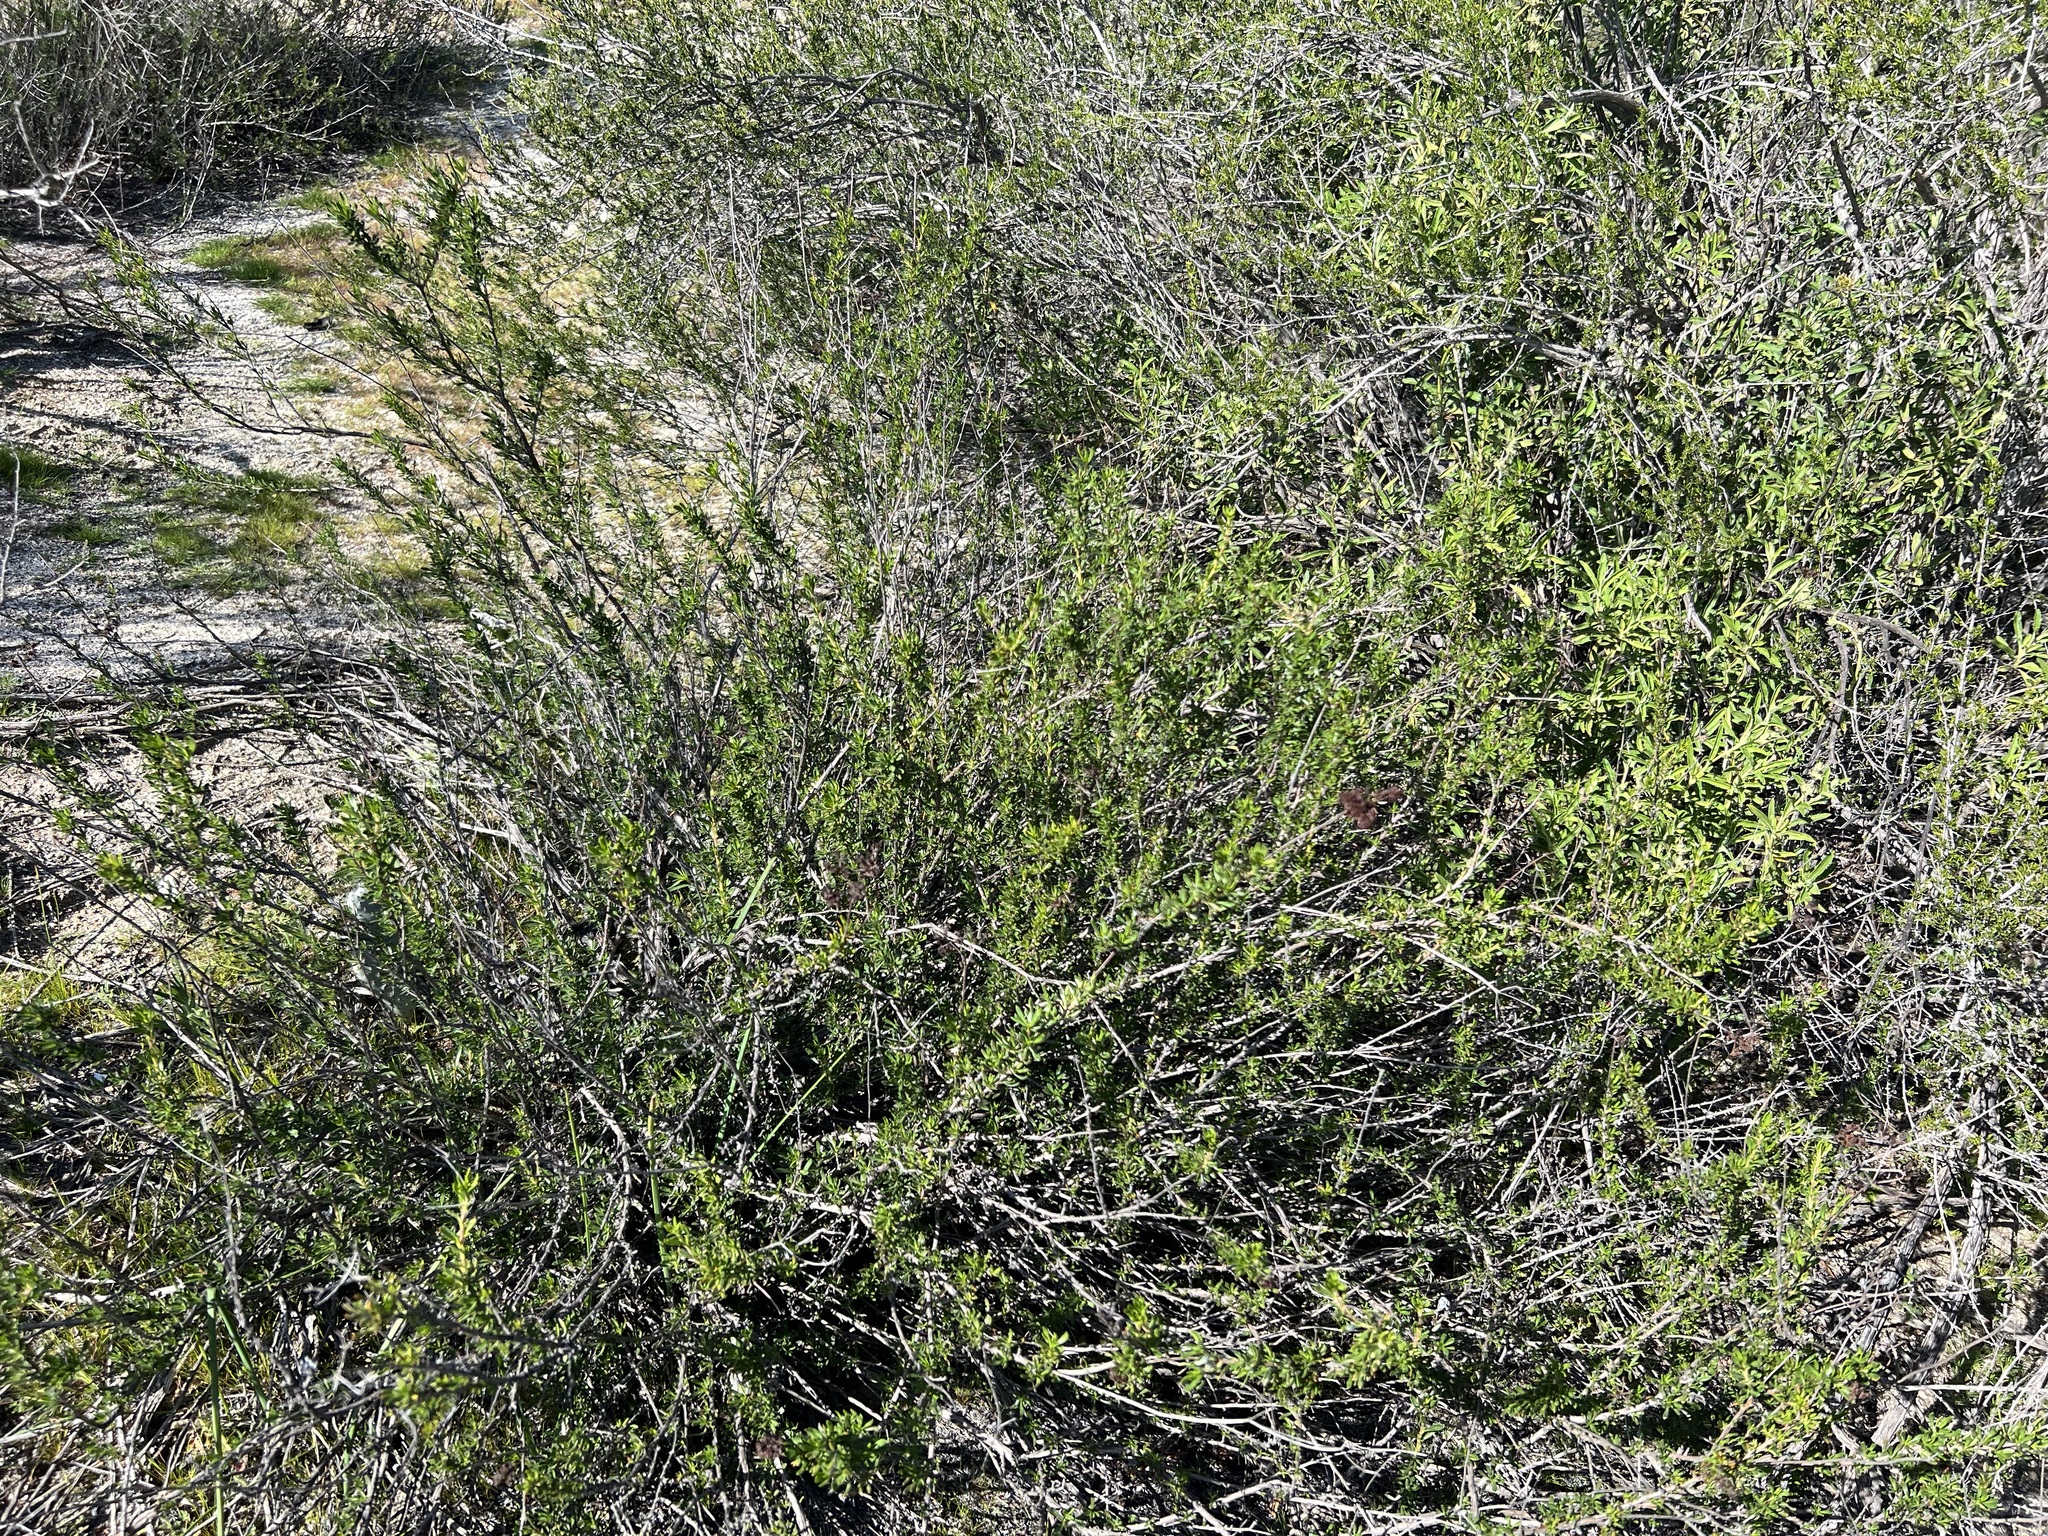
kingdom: Plantae
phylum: Tracheophyta
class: Magnoliopsida
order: Caryophyllales
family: Polygonaceae
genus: Eriogonum
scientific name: Eriogonum fasciculatum
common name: California wild buckwheat
